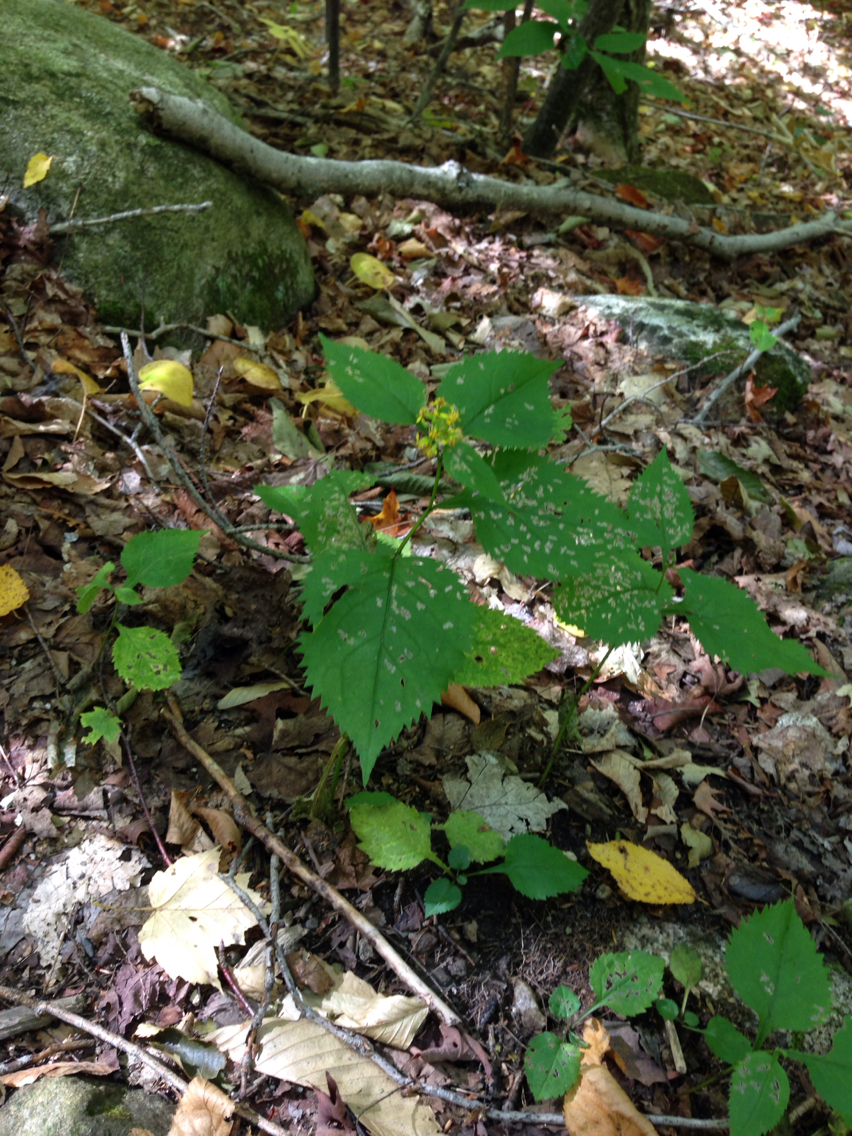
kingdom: Plantae
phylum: Tracheophyta
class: Magnoliopsida
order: Asterales
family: Asteraceae
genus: Solidago
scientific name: Solidago flexicaulis
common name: Zig-zag goldenrod
